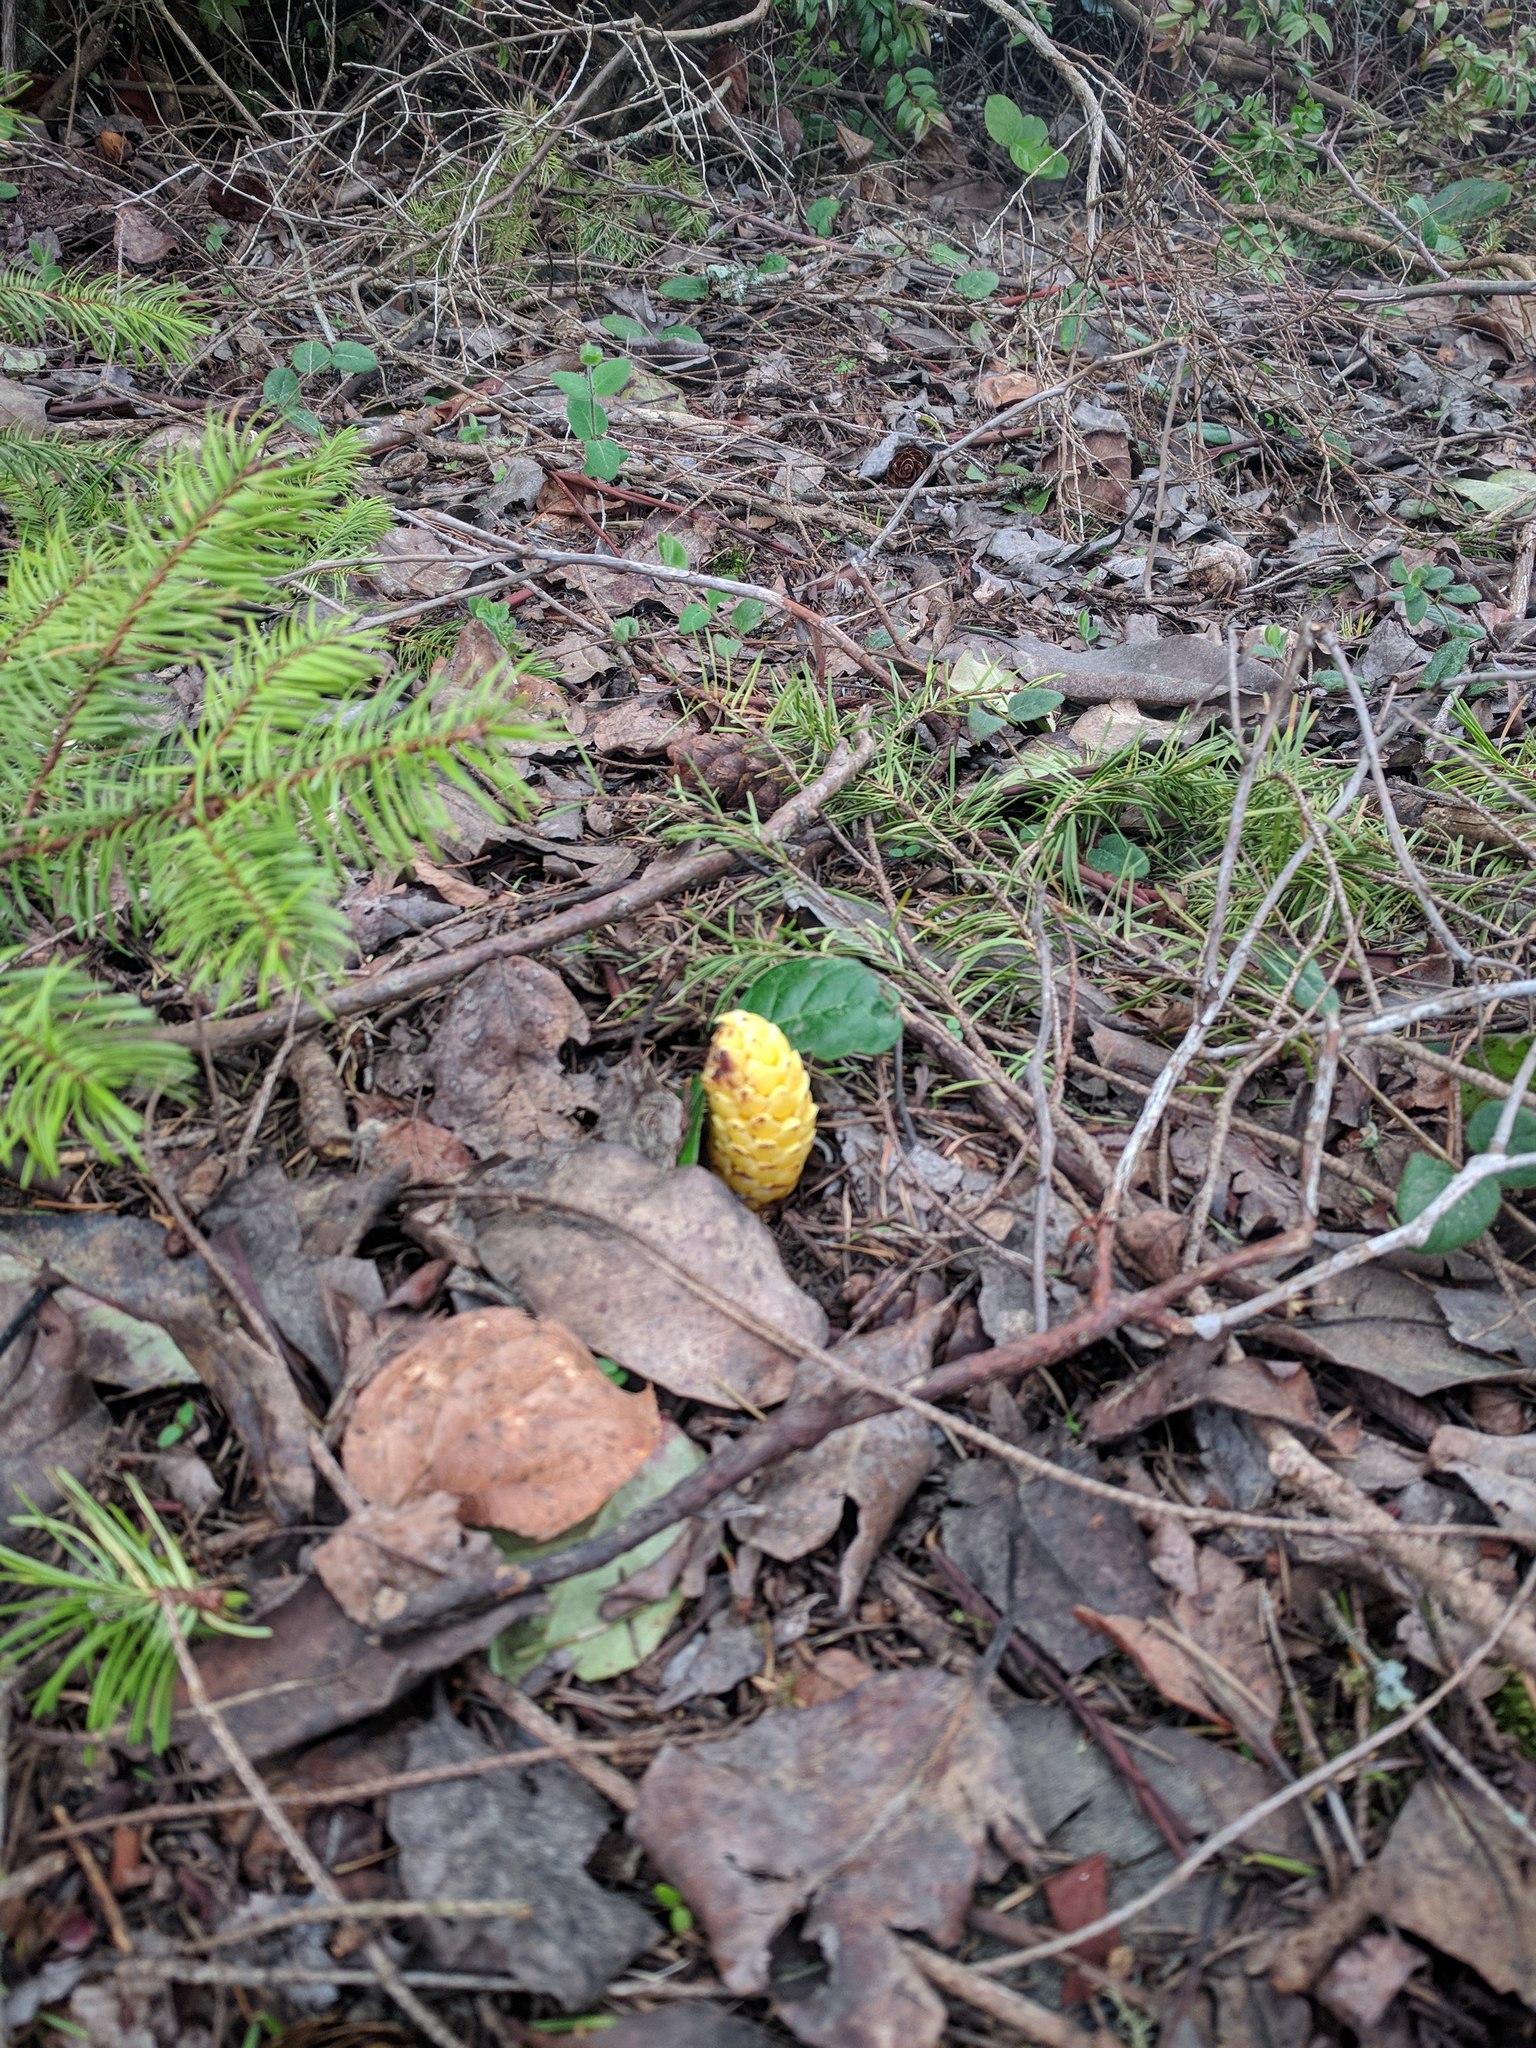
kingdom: Plantae
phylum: Tracheophyta
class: Magnoliopsida
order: Lamiales
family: Orobanchaceae
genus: Kopsiopsis
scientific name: Kopsiopsis hookeri
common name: Hooker's groundcone
